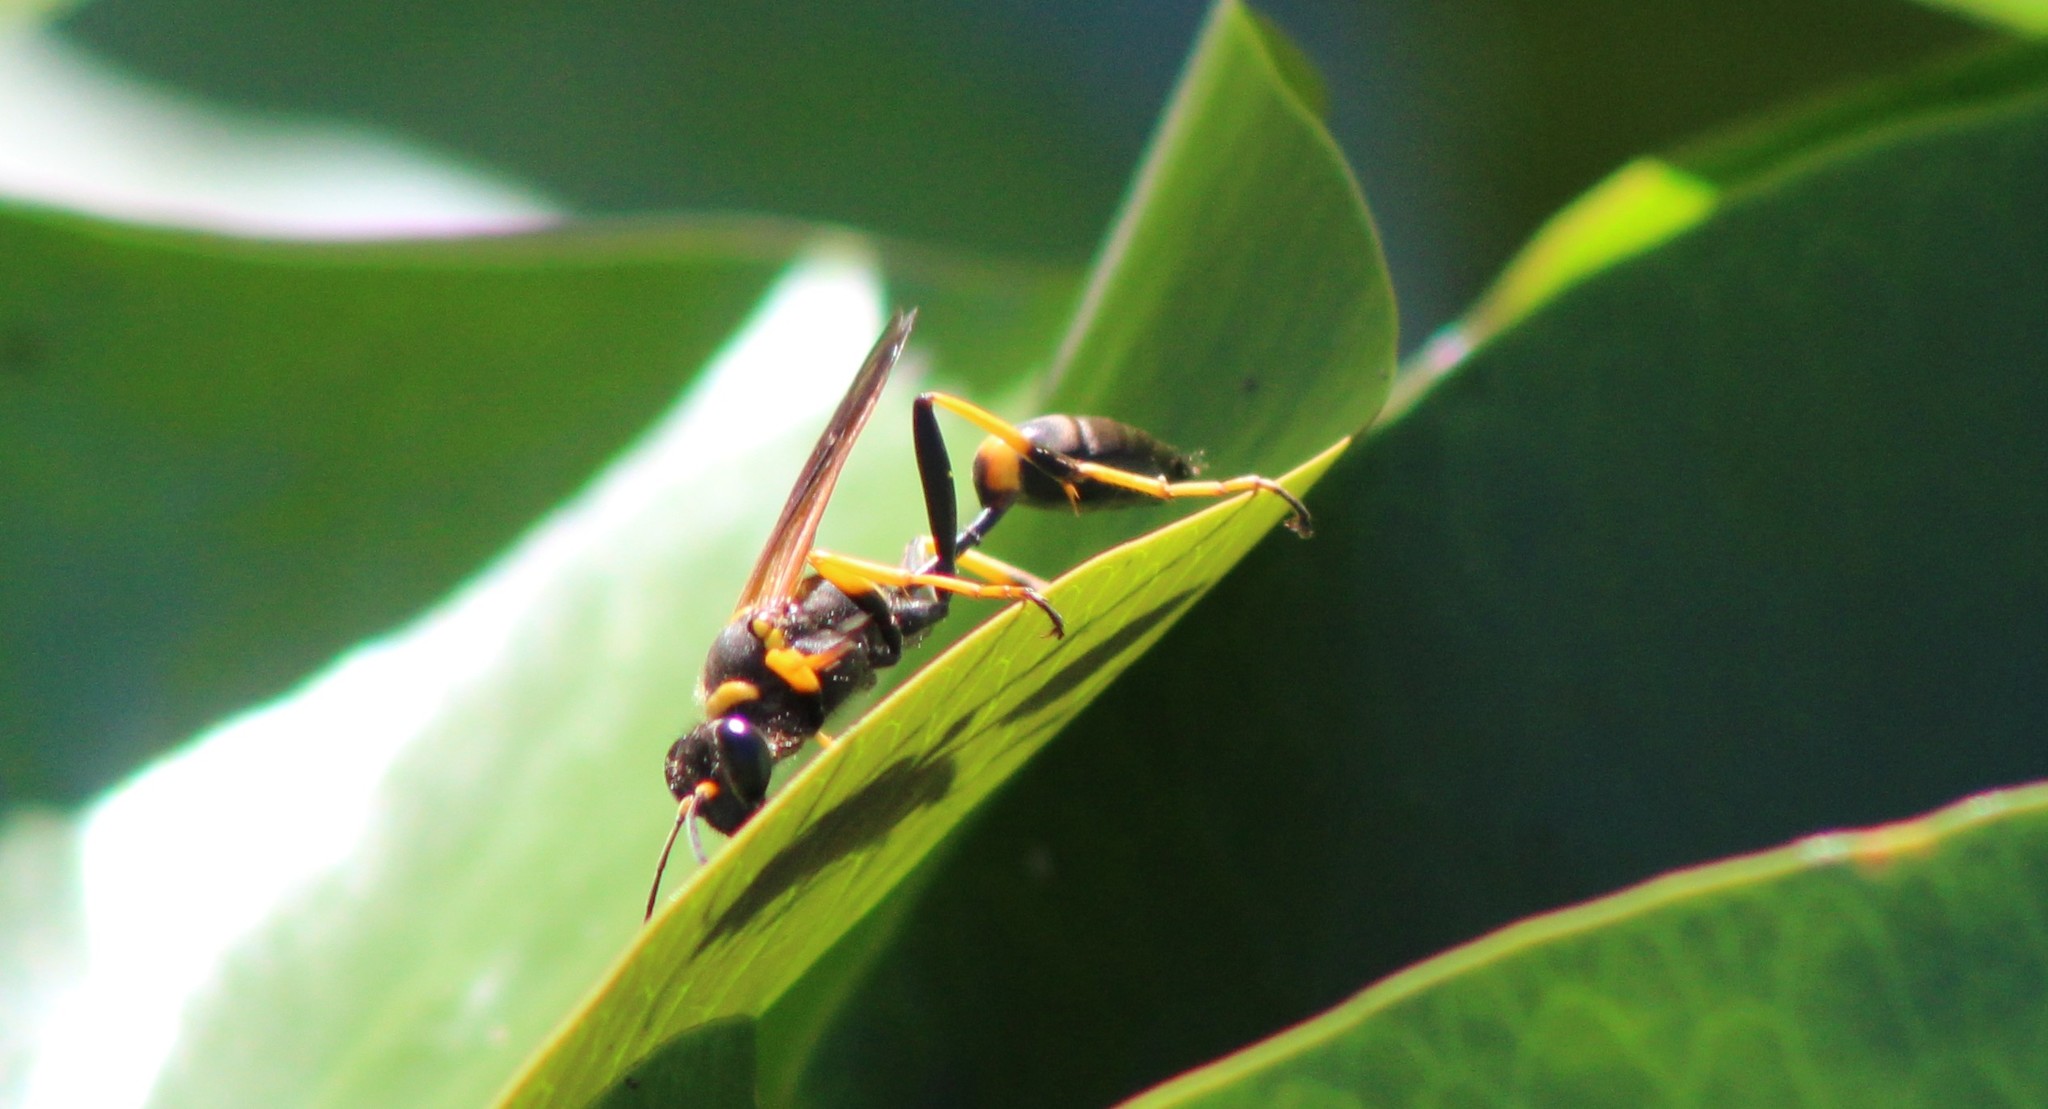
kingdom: Animalia
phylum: Arthropoda
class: Insecta
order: Hymenoptera
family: Sphecidae
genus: Sceliphron
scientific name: Sceliphron caementarium
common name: Mud dauber
